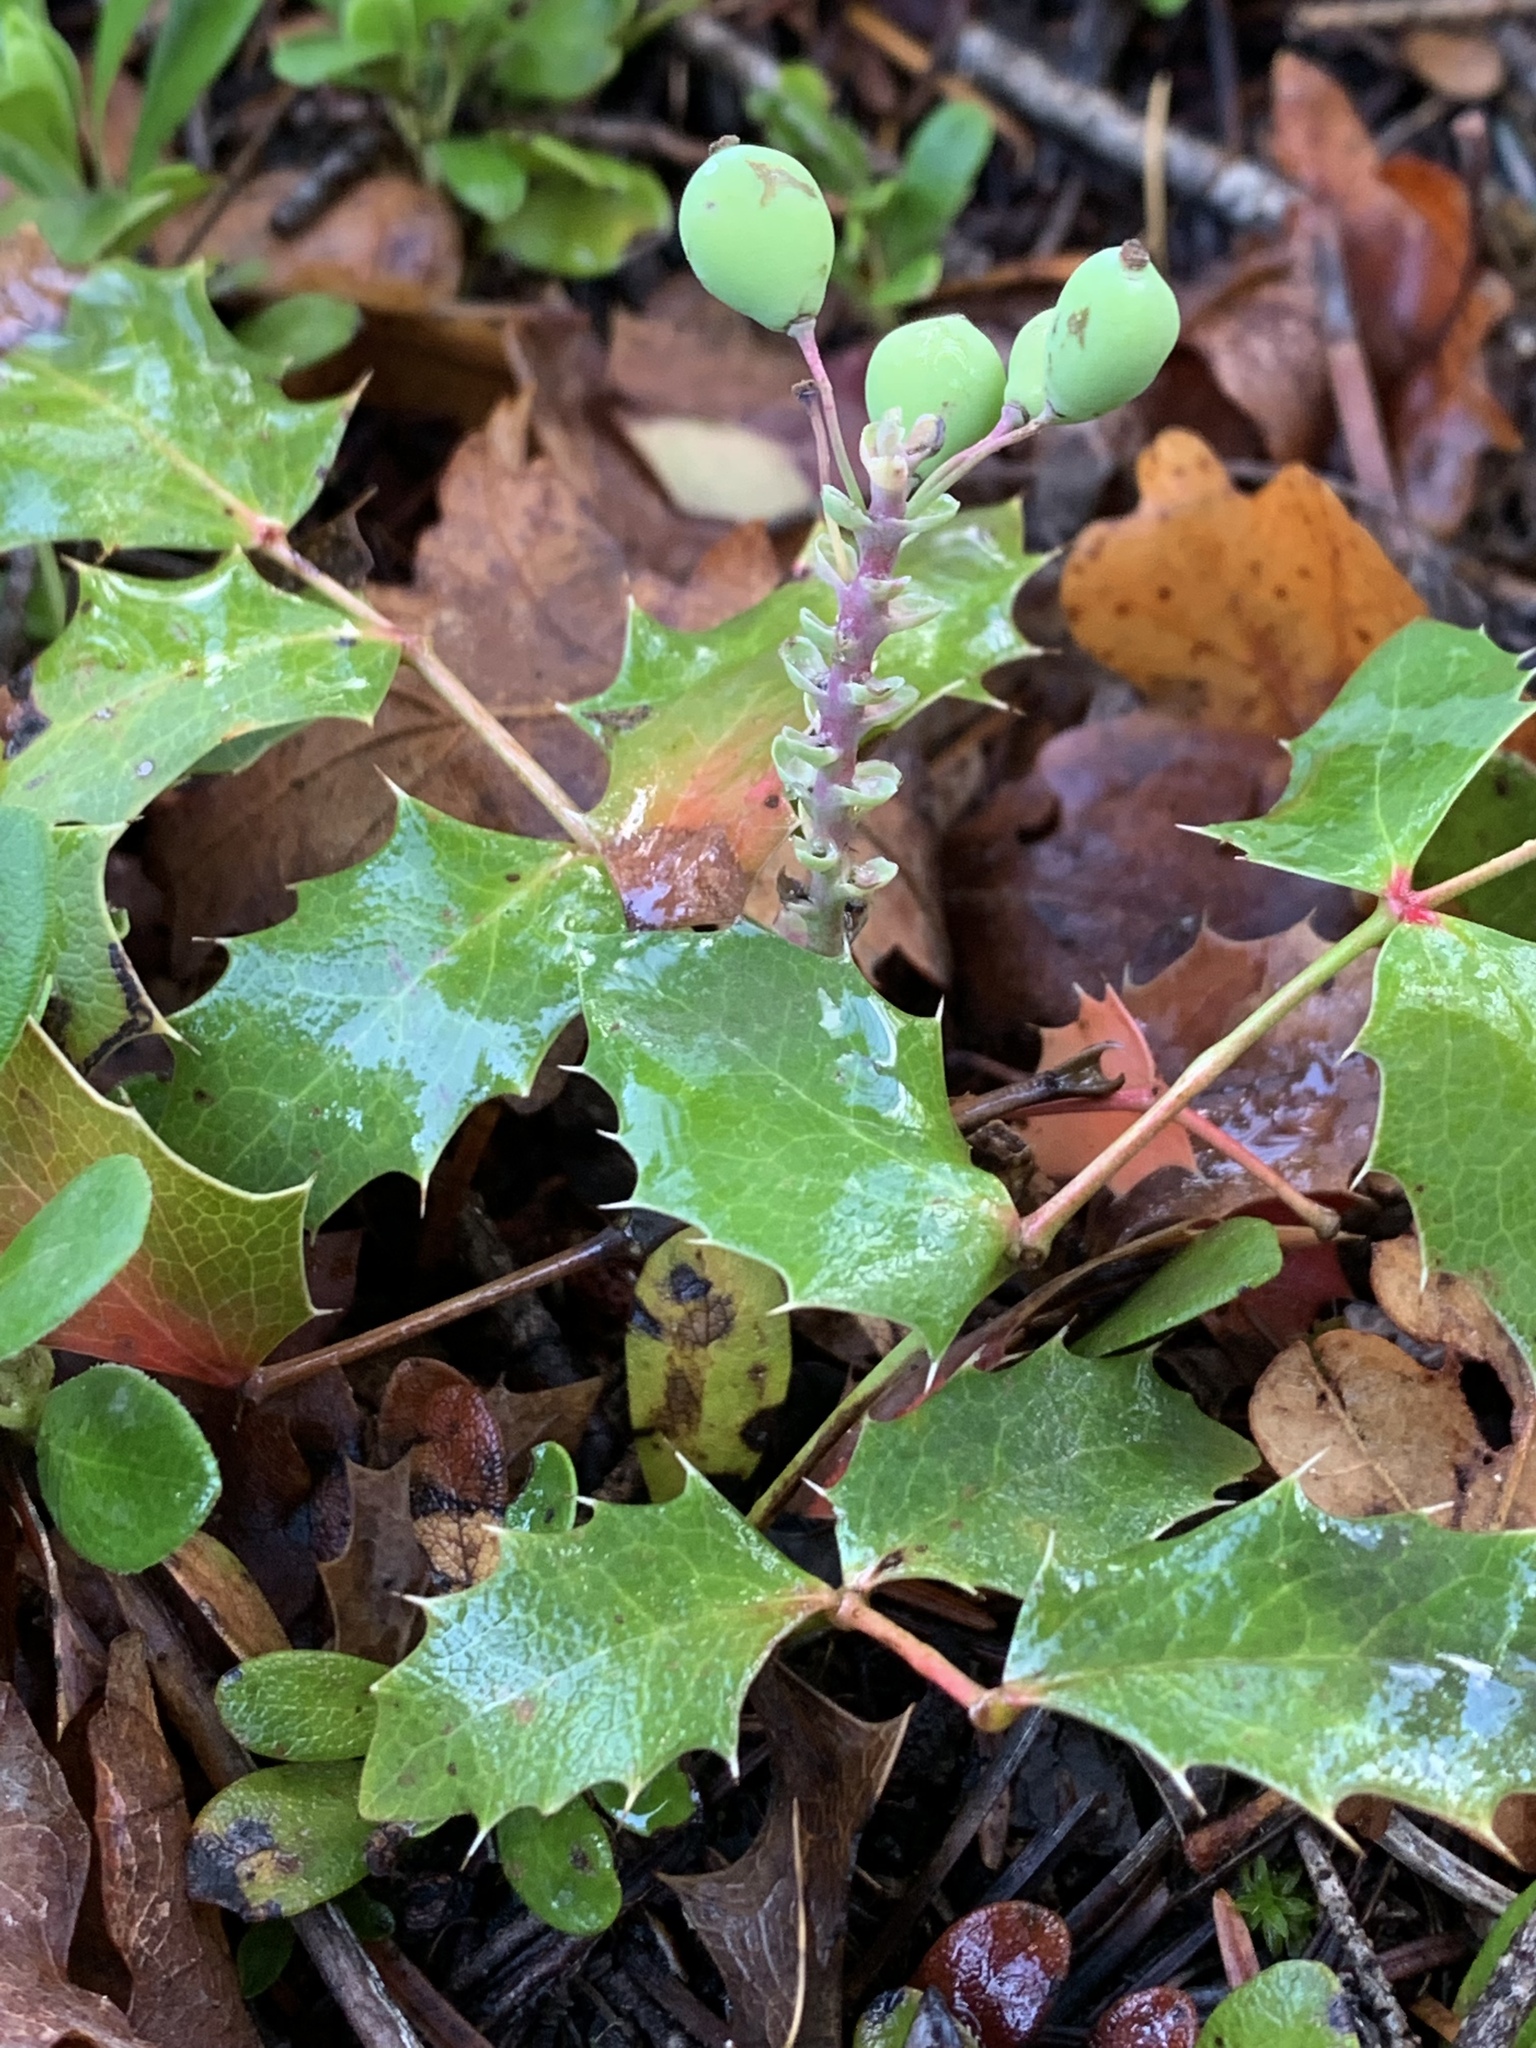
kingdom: Plantae
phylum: Tracheophyta
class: Magnoliopsida
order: Ranunculales
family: Berberidaceae
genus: Mahonia
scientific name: Mahonia repens
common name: Creeping oregon-grape
